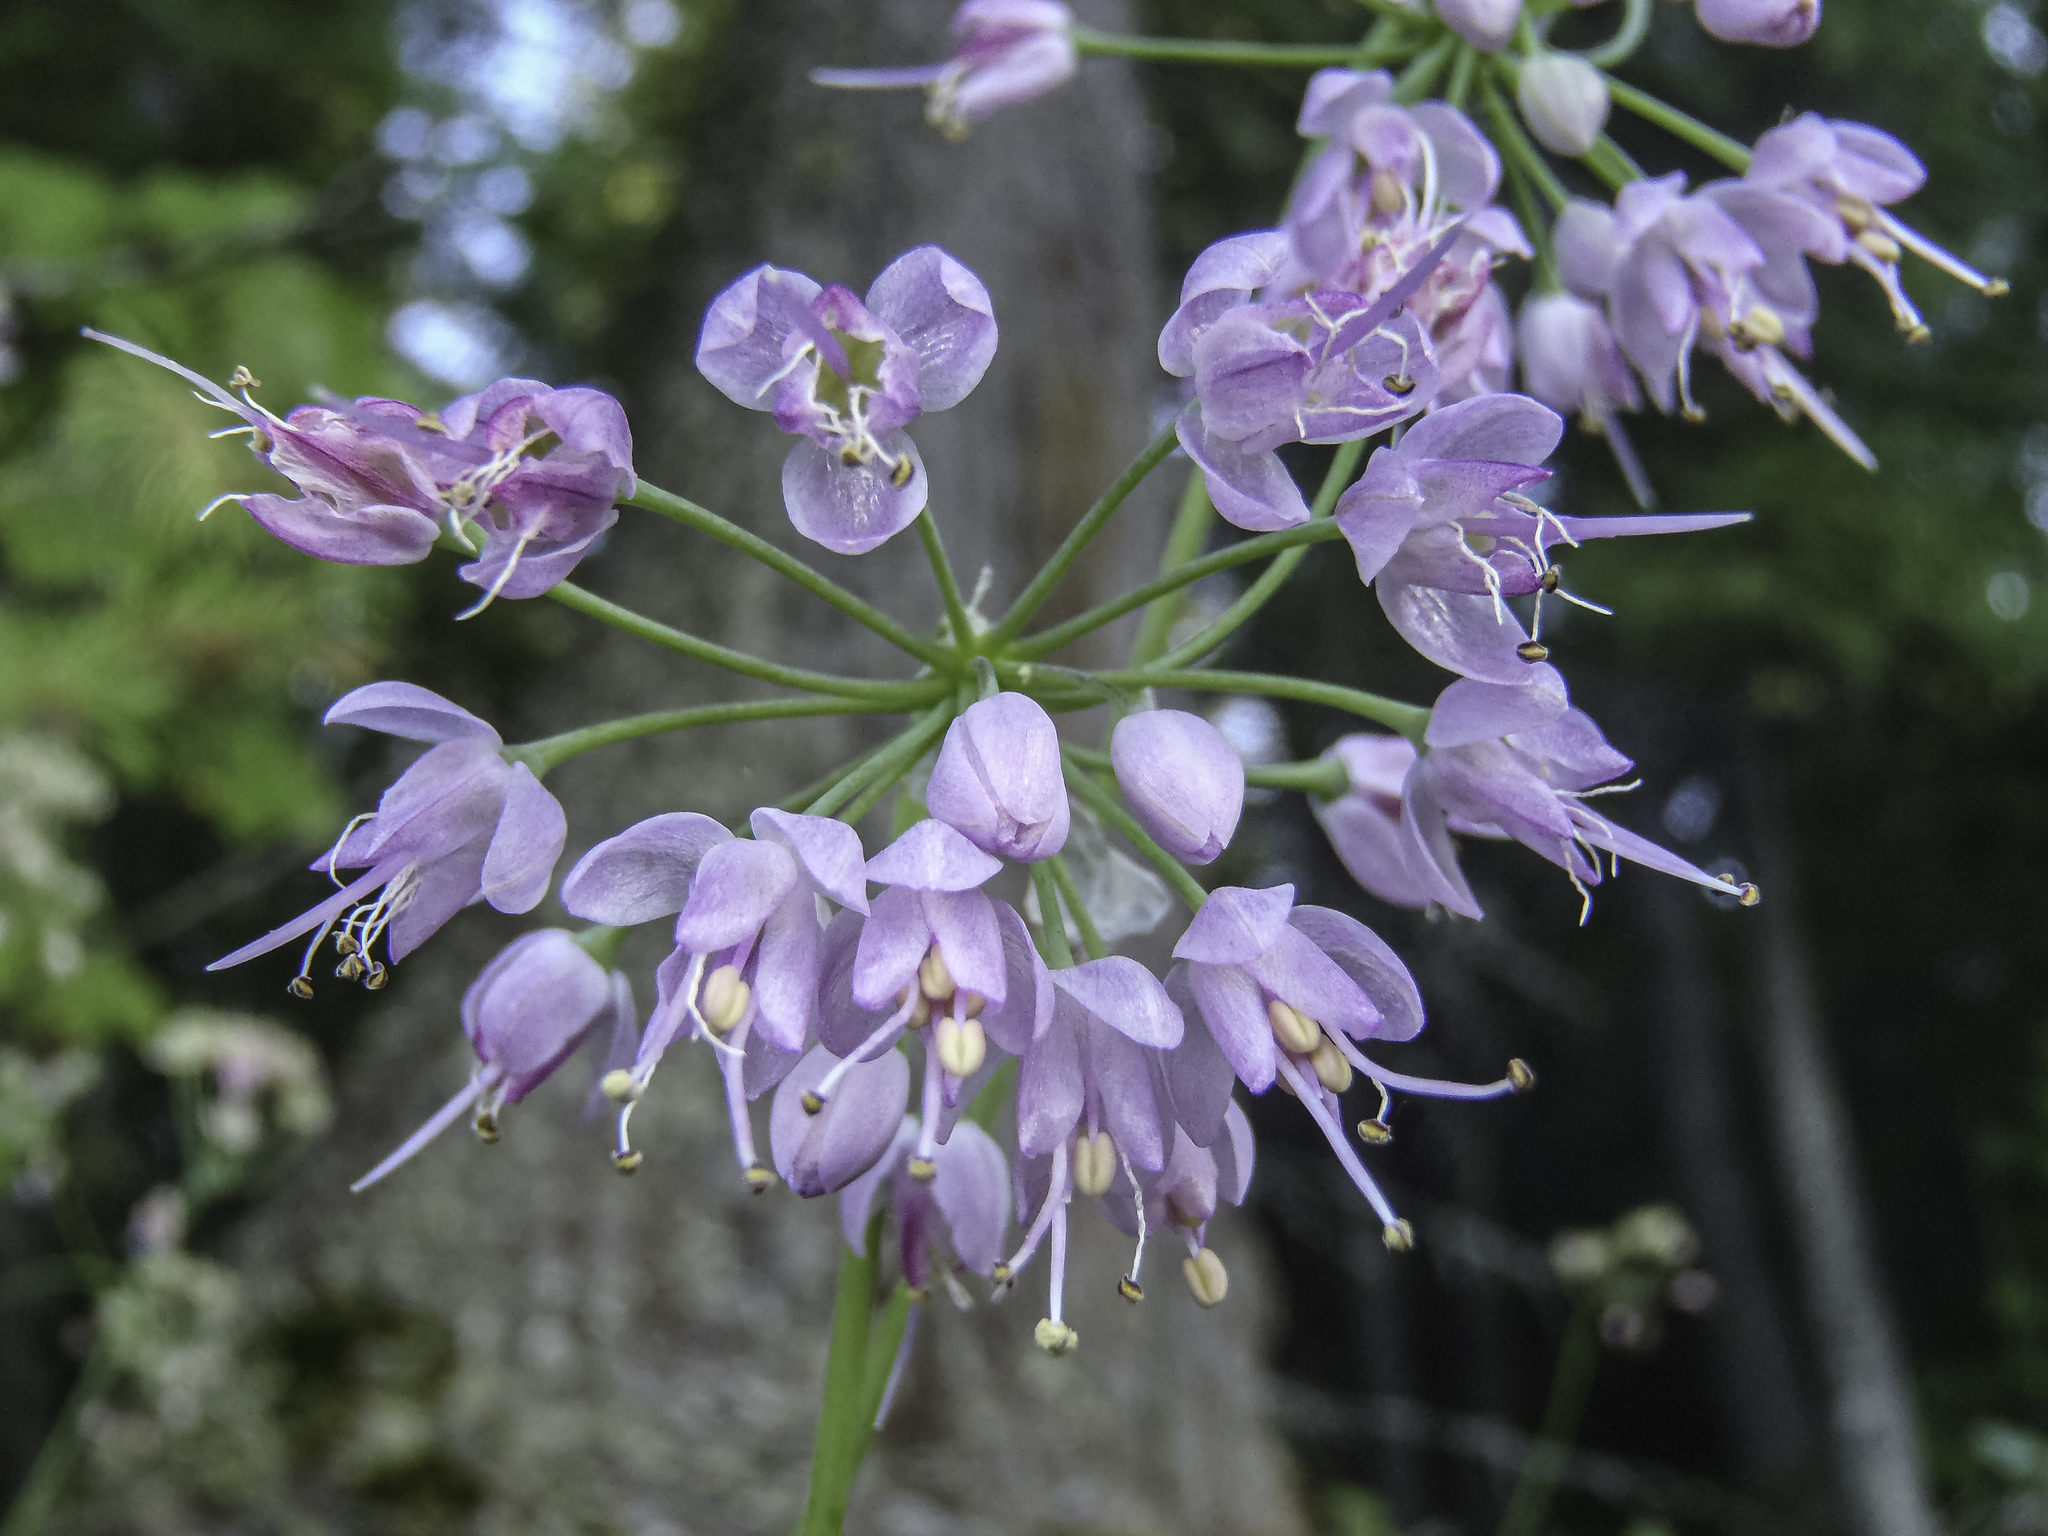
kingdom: Plantae
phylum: Tracheophyta
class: Liliopsida
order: Asparagales
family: Amaryllidaceae
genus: Allium
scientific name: Allium cernuum
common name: Nodding onion
